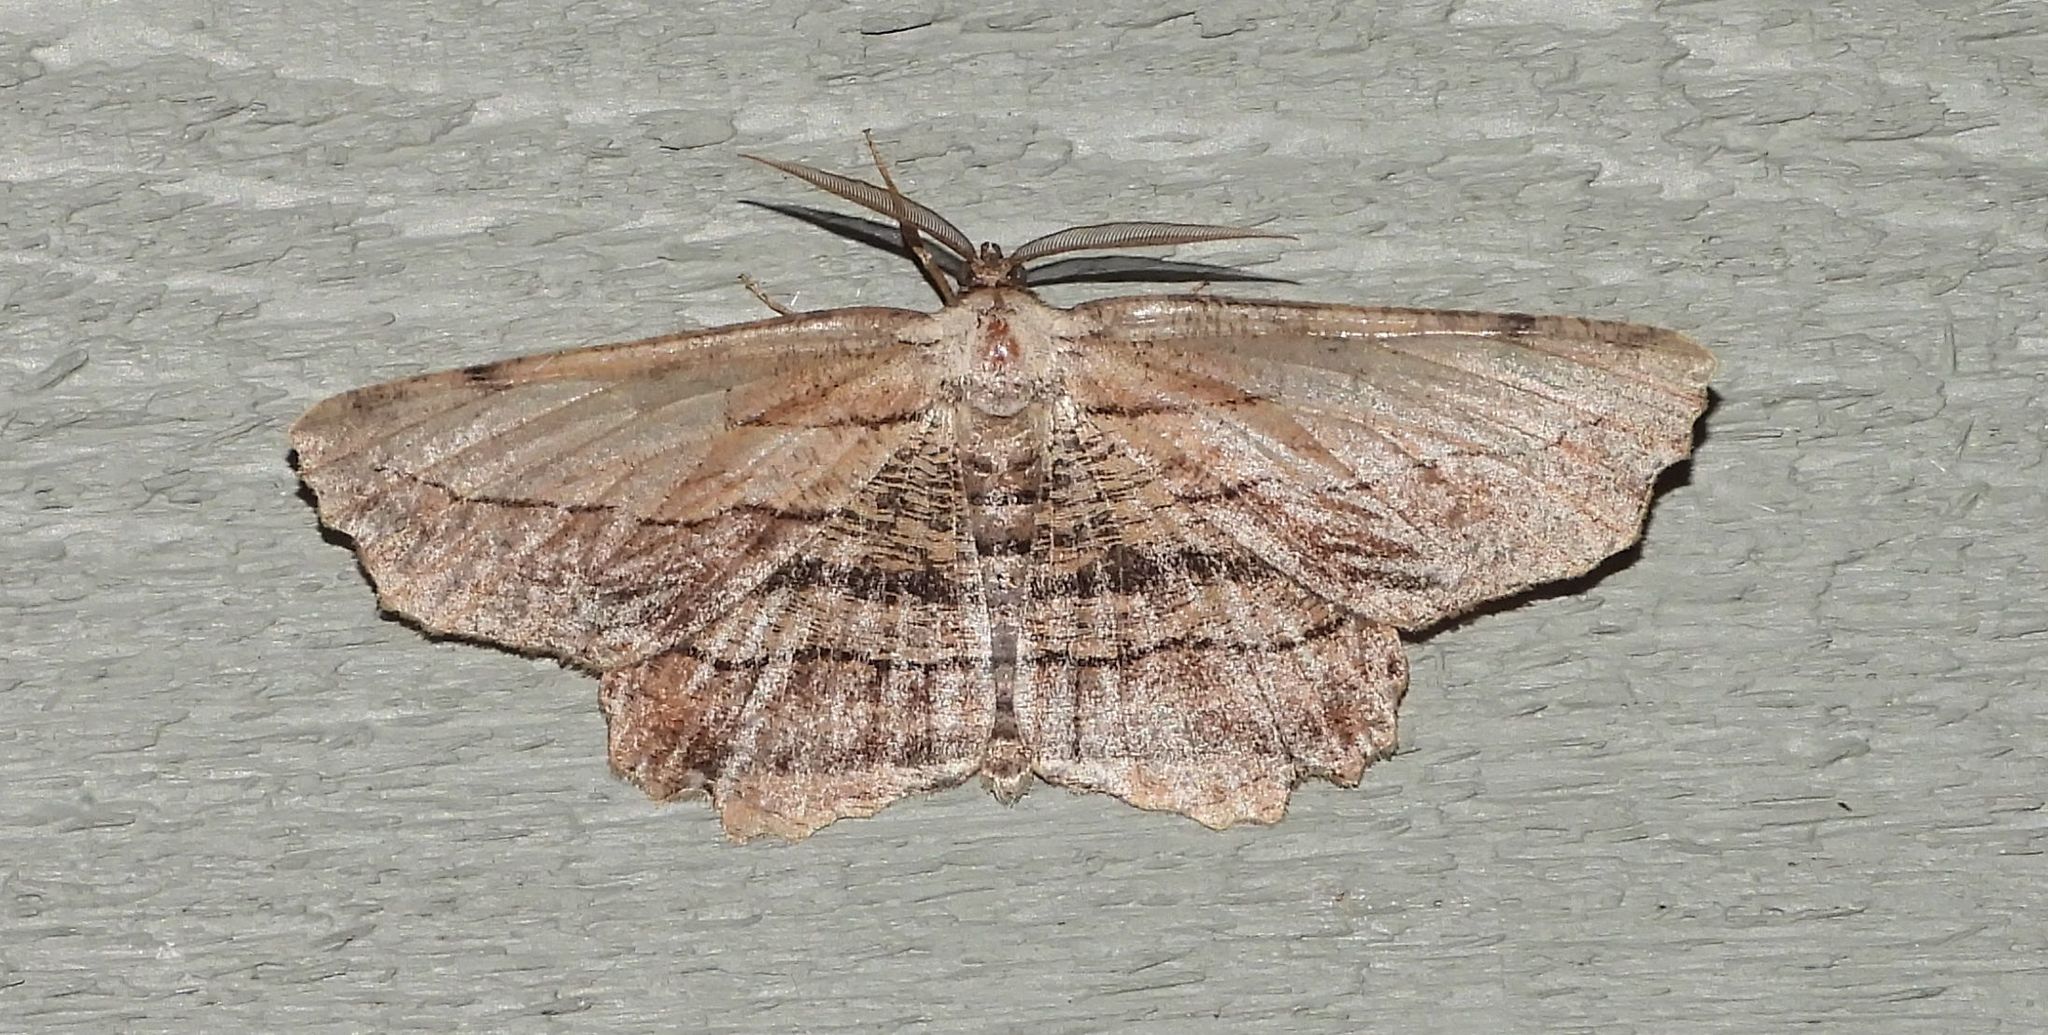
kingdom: Animalia
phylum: Arthropoda
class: Insecta
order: Lepidoptera
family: Geometridae
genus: Lytrosis
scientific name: Lytrosis unitaria
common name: Common lytrosis
